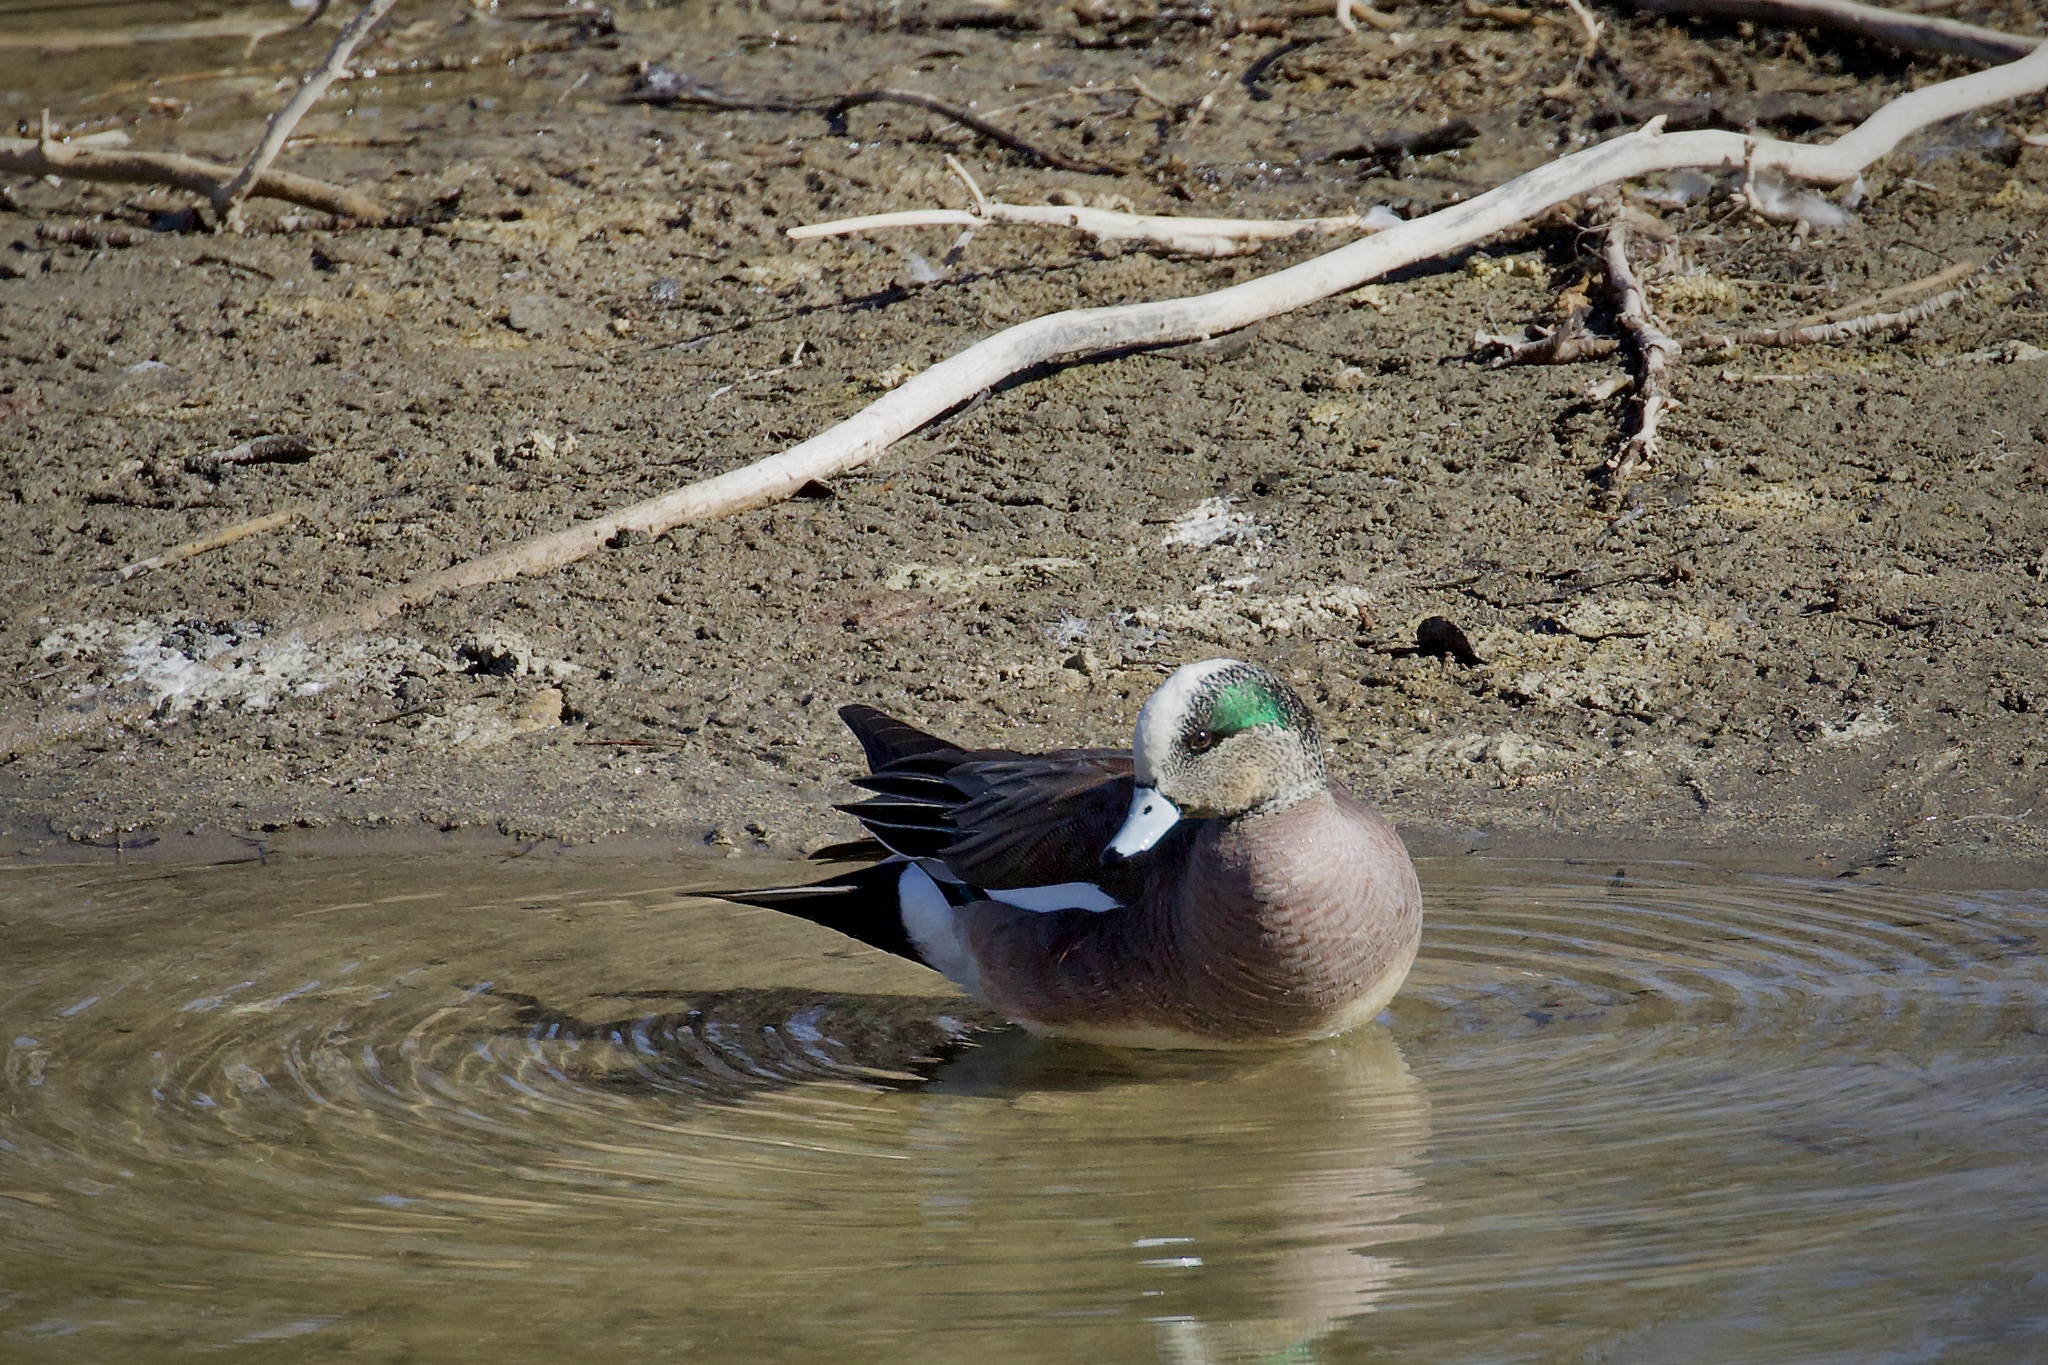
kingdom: Animalia
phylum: Chordata
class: Aves
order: Anseriformes
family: Anatidae
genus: Mareca
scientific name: Mareca americana
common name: American wigeon
